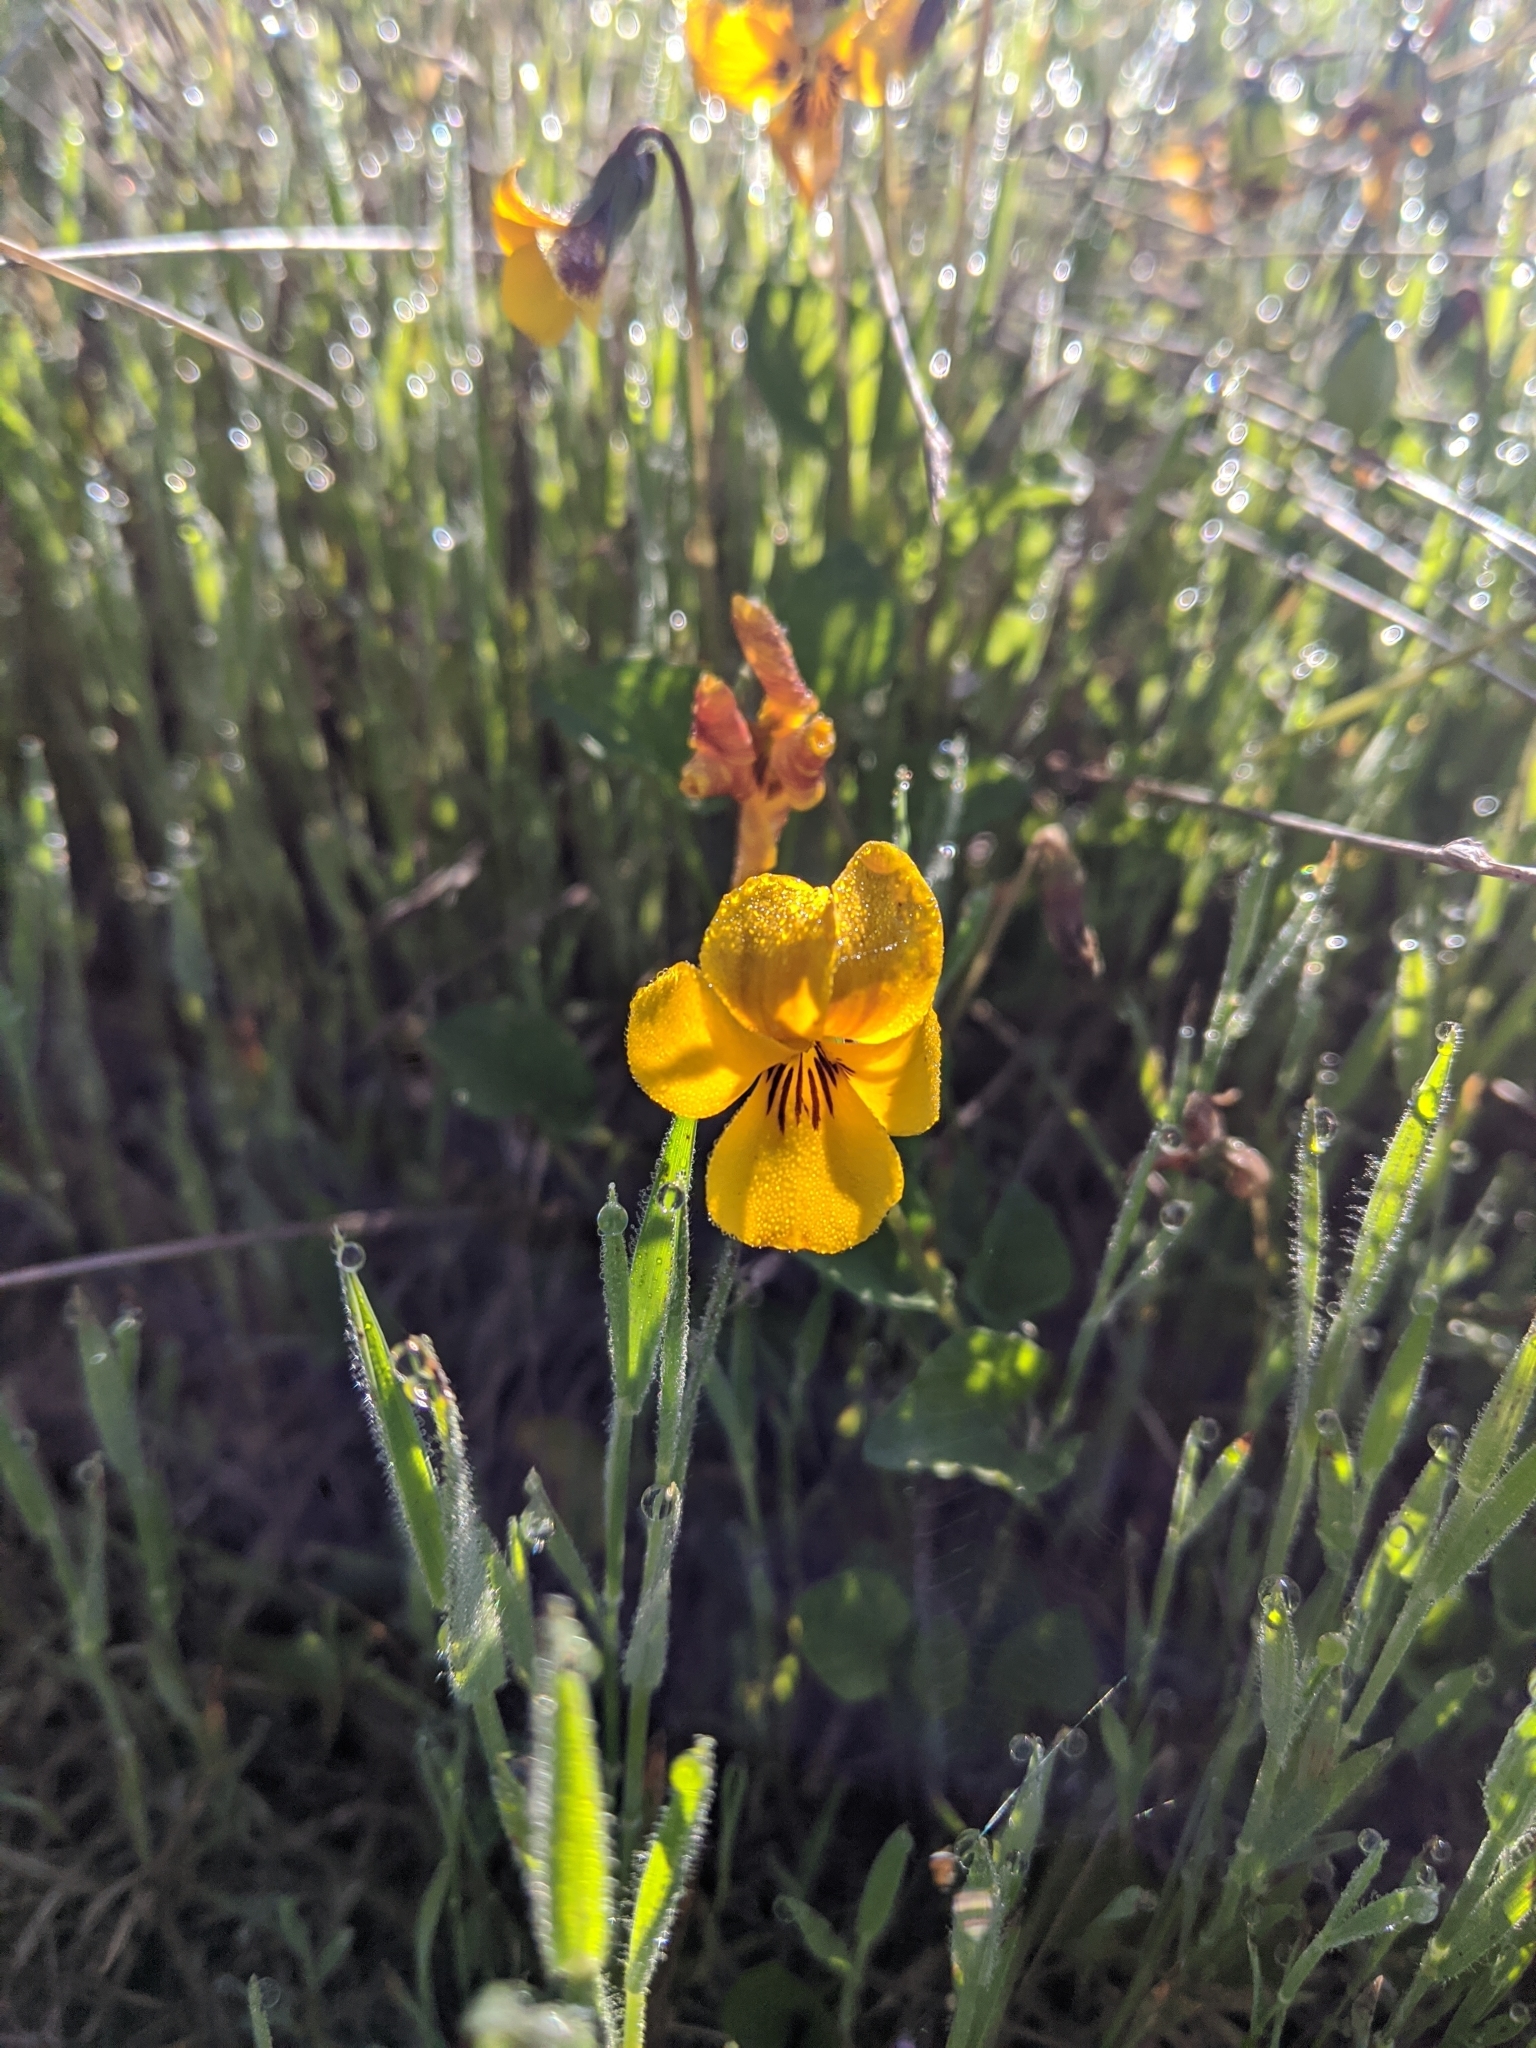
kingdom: Plantae
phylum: Tracheophyta
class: Magnoliopsida
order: Malpighiales
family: Violaceae
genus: Viola
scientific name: Viola pedunculata
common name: California golden violet
